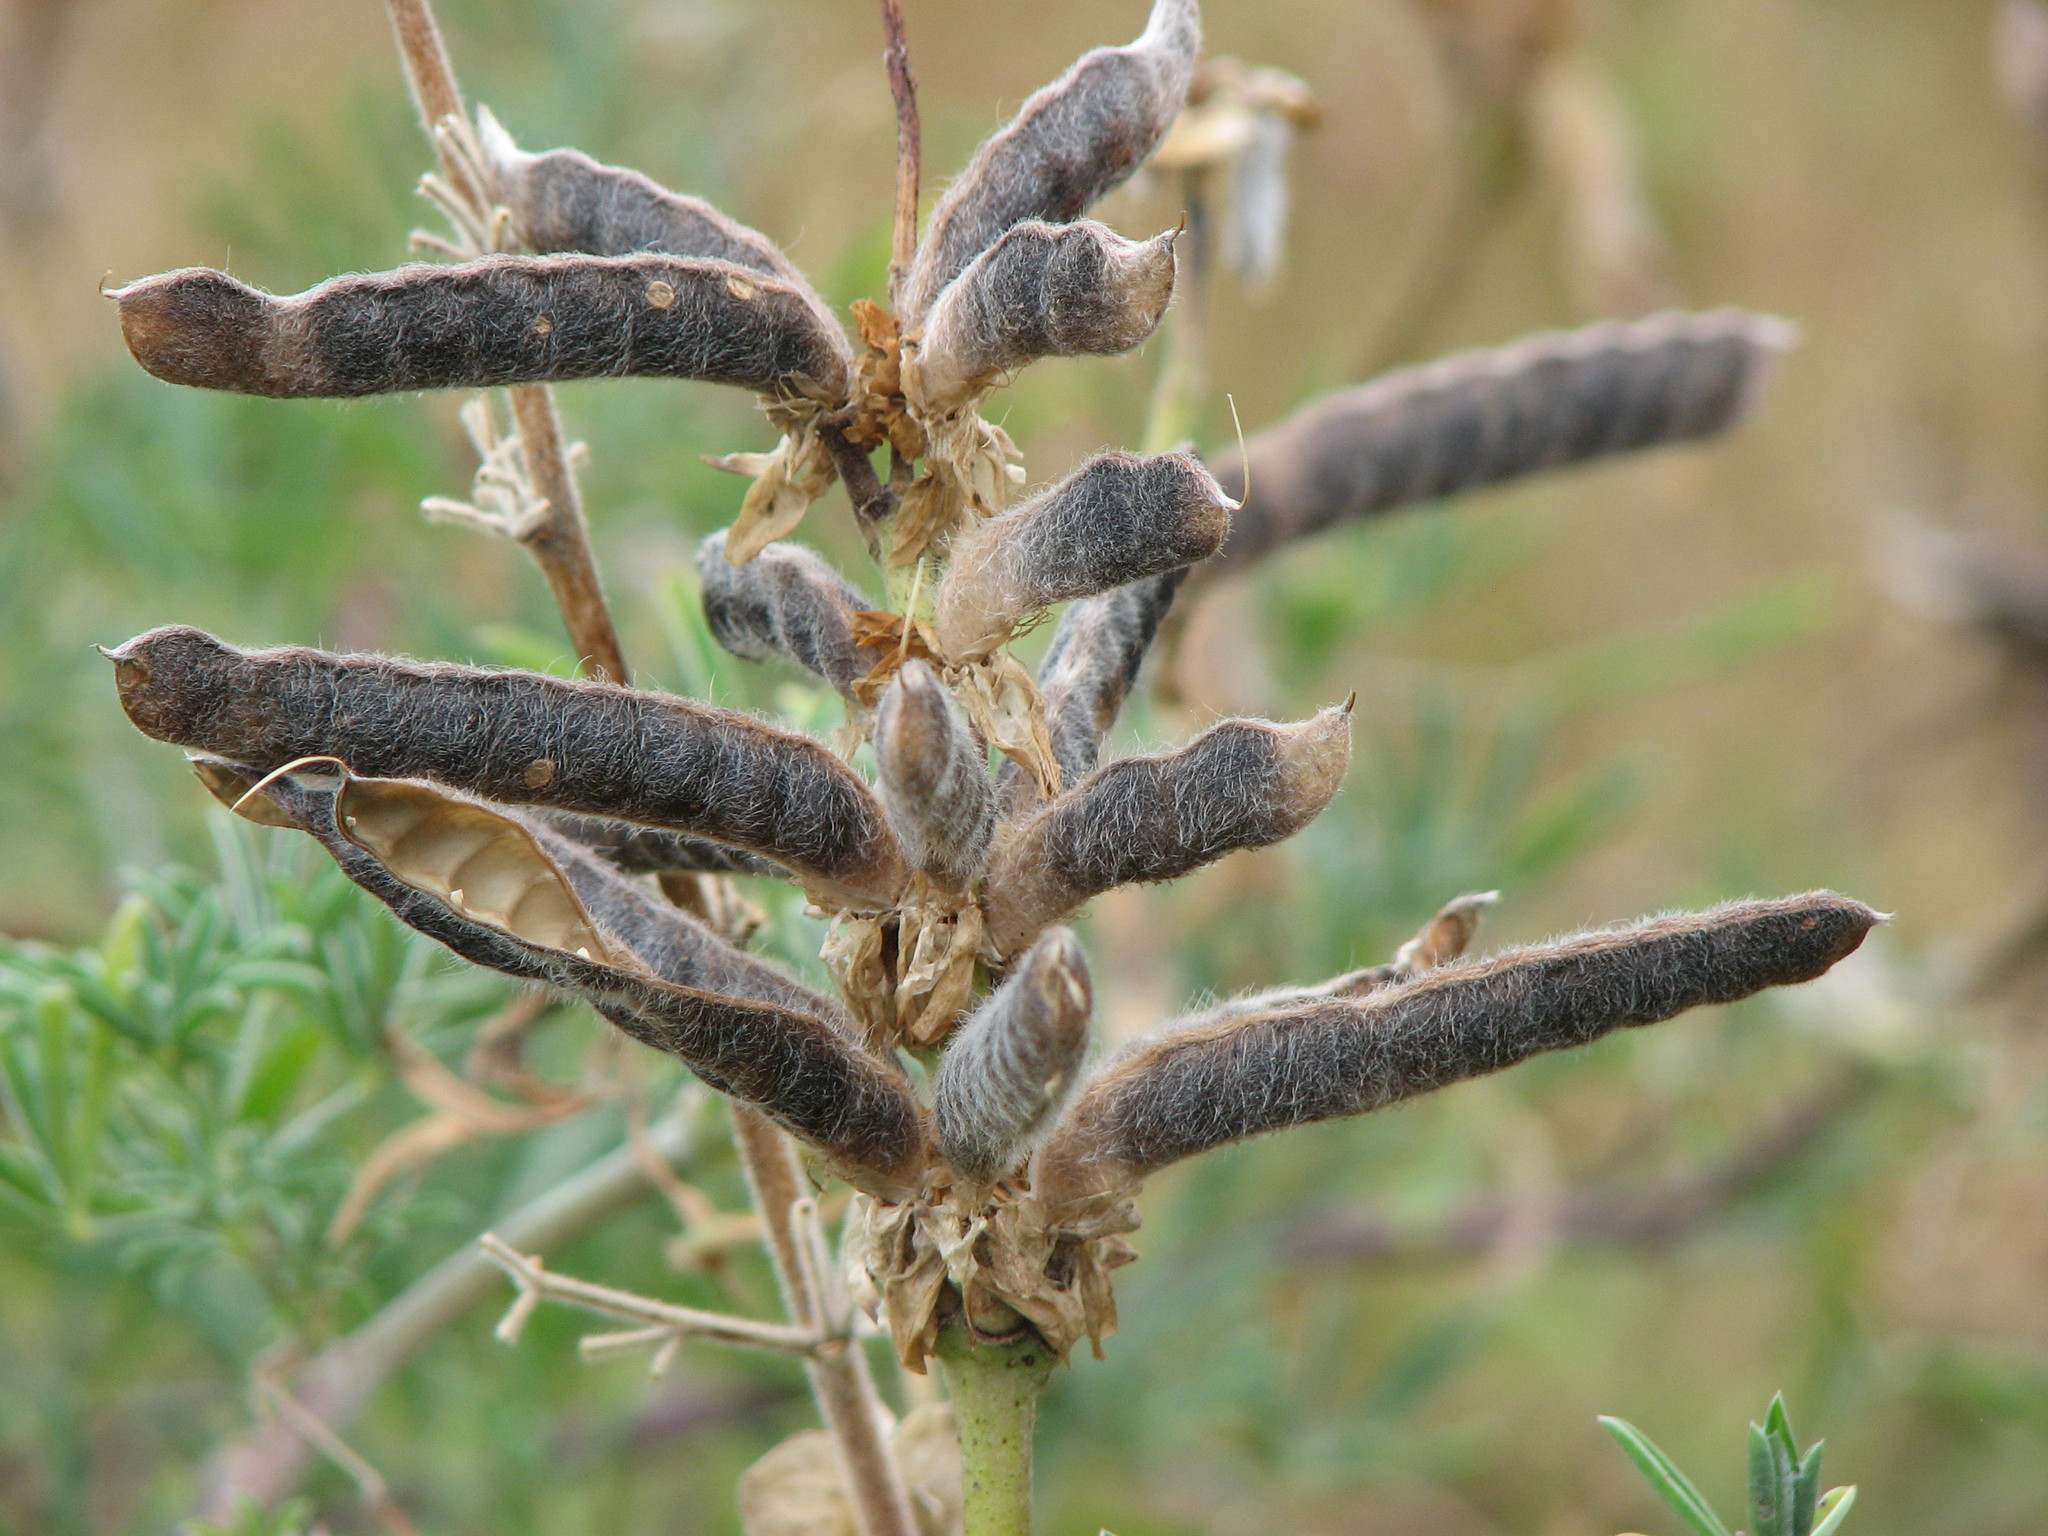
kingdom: Plantae
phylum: Tracheophyta
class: Magnoliopsida
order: Fabales
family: Fabaceae
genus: Lupinus
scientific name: Lupinus arboreus
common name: Yellow bush lupine
